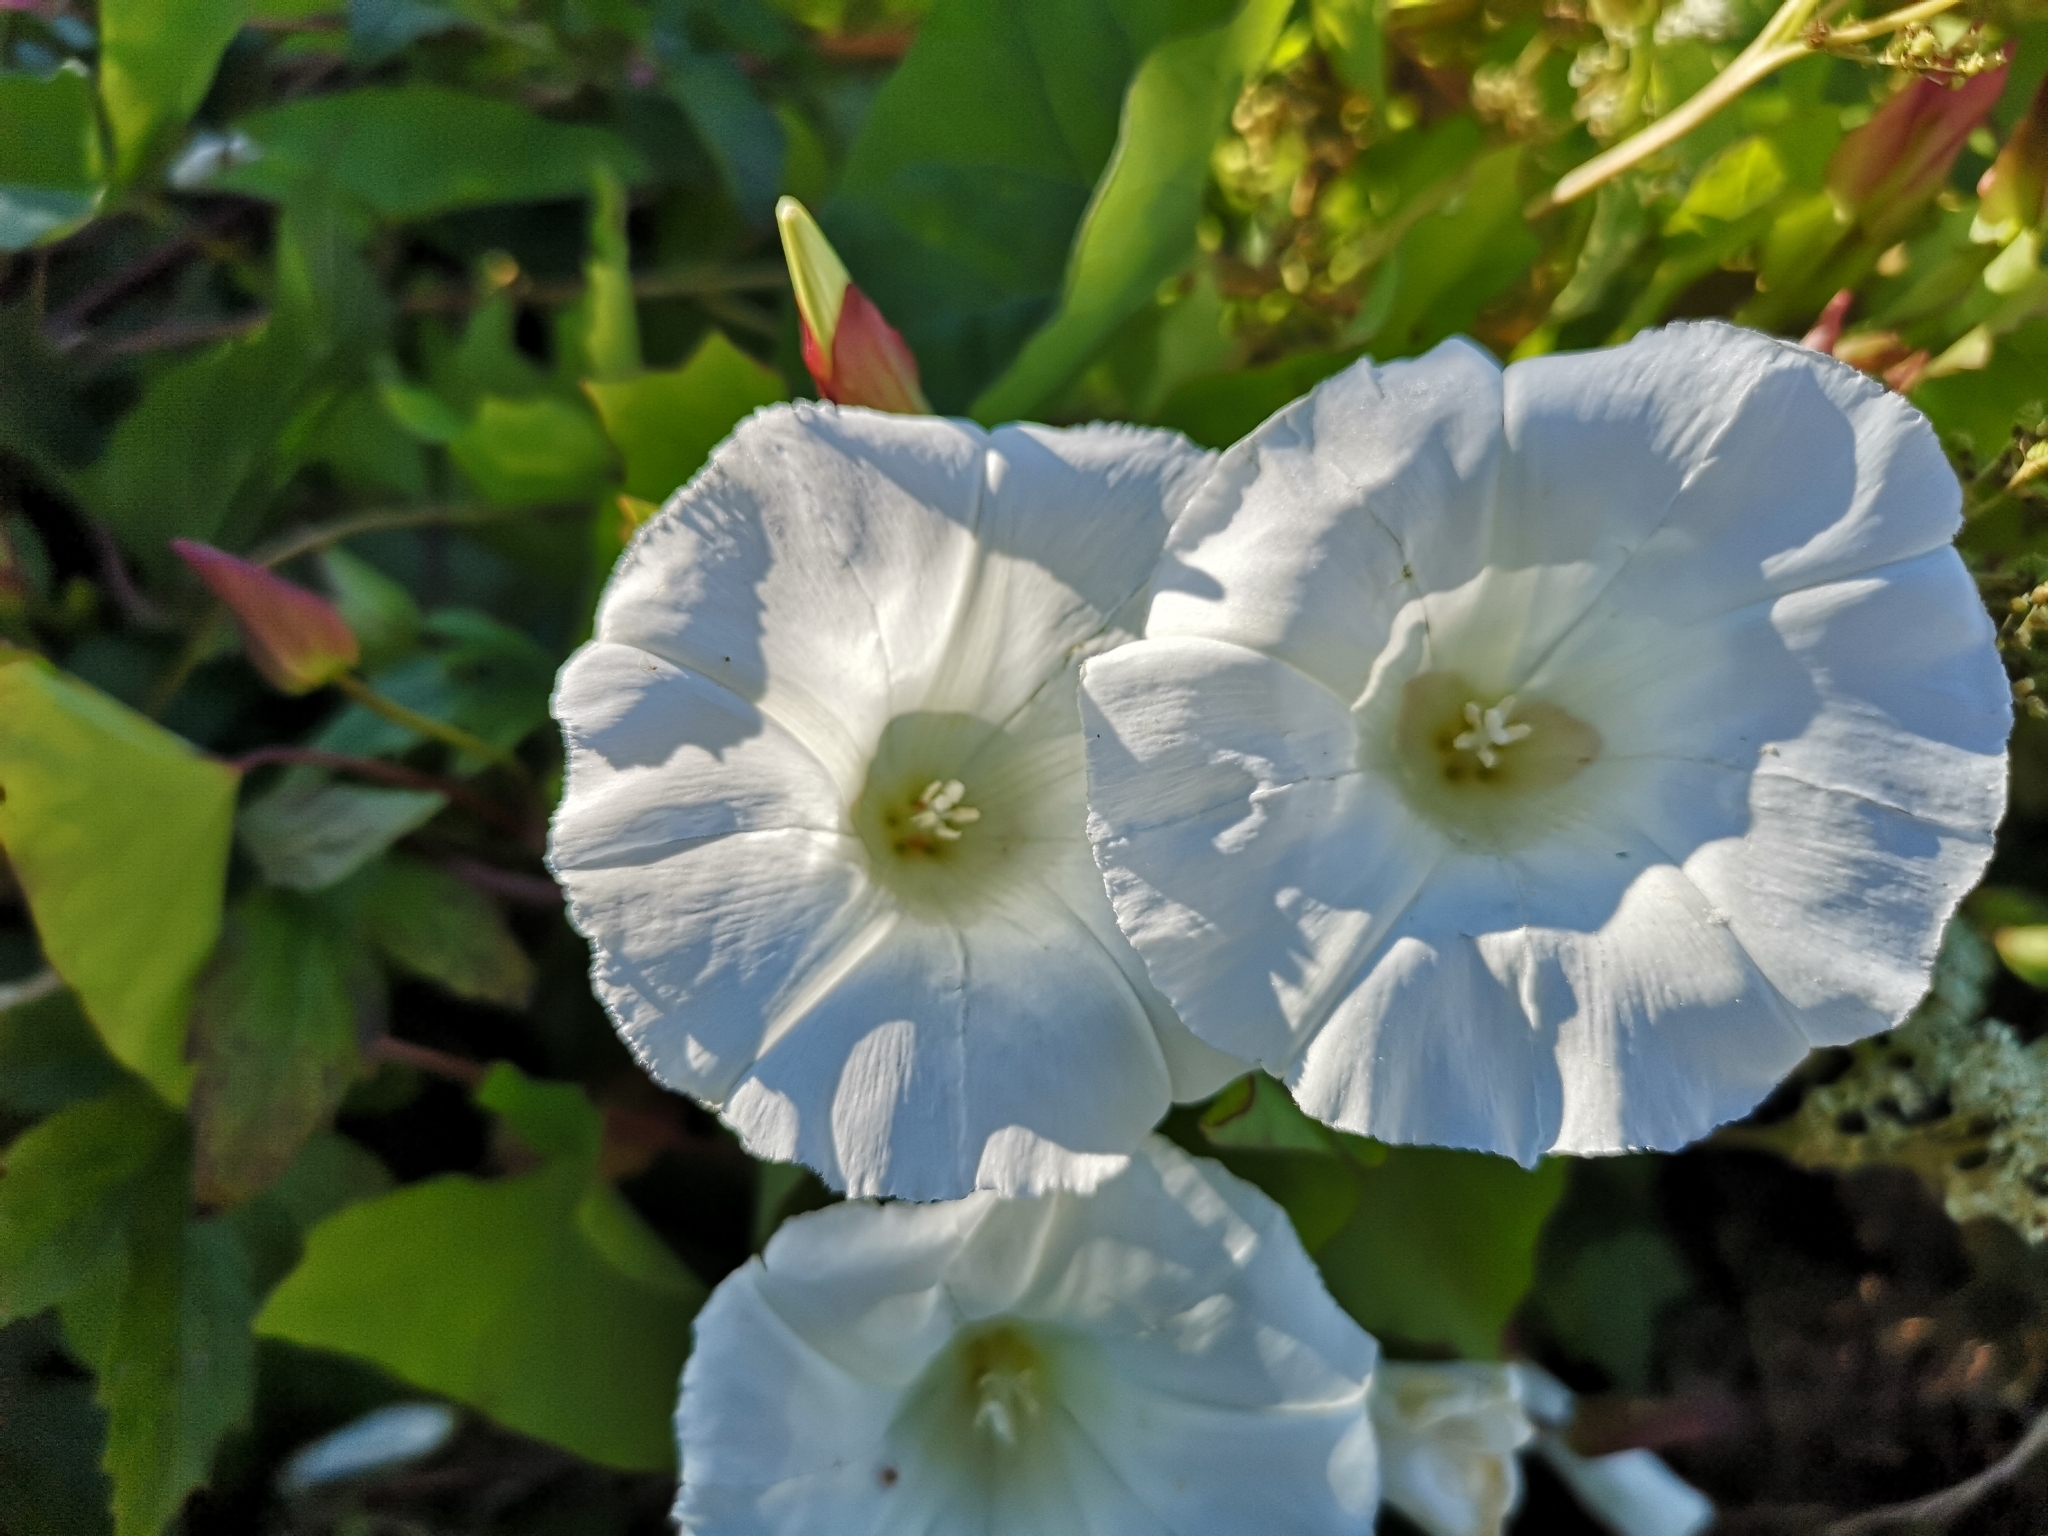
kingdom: Plantae
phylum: Tracheophyta
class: Magnoliopsida
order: Solanales
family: Convolvulaceae
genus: Calystegia
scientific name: Calystegia sepium
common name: Hedge bindweed
